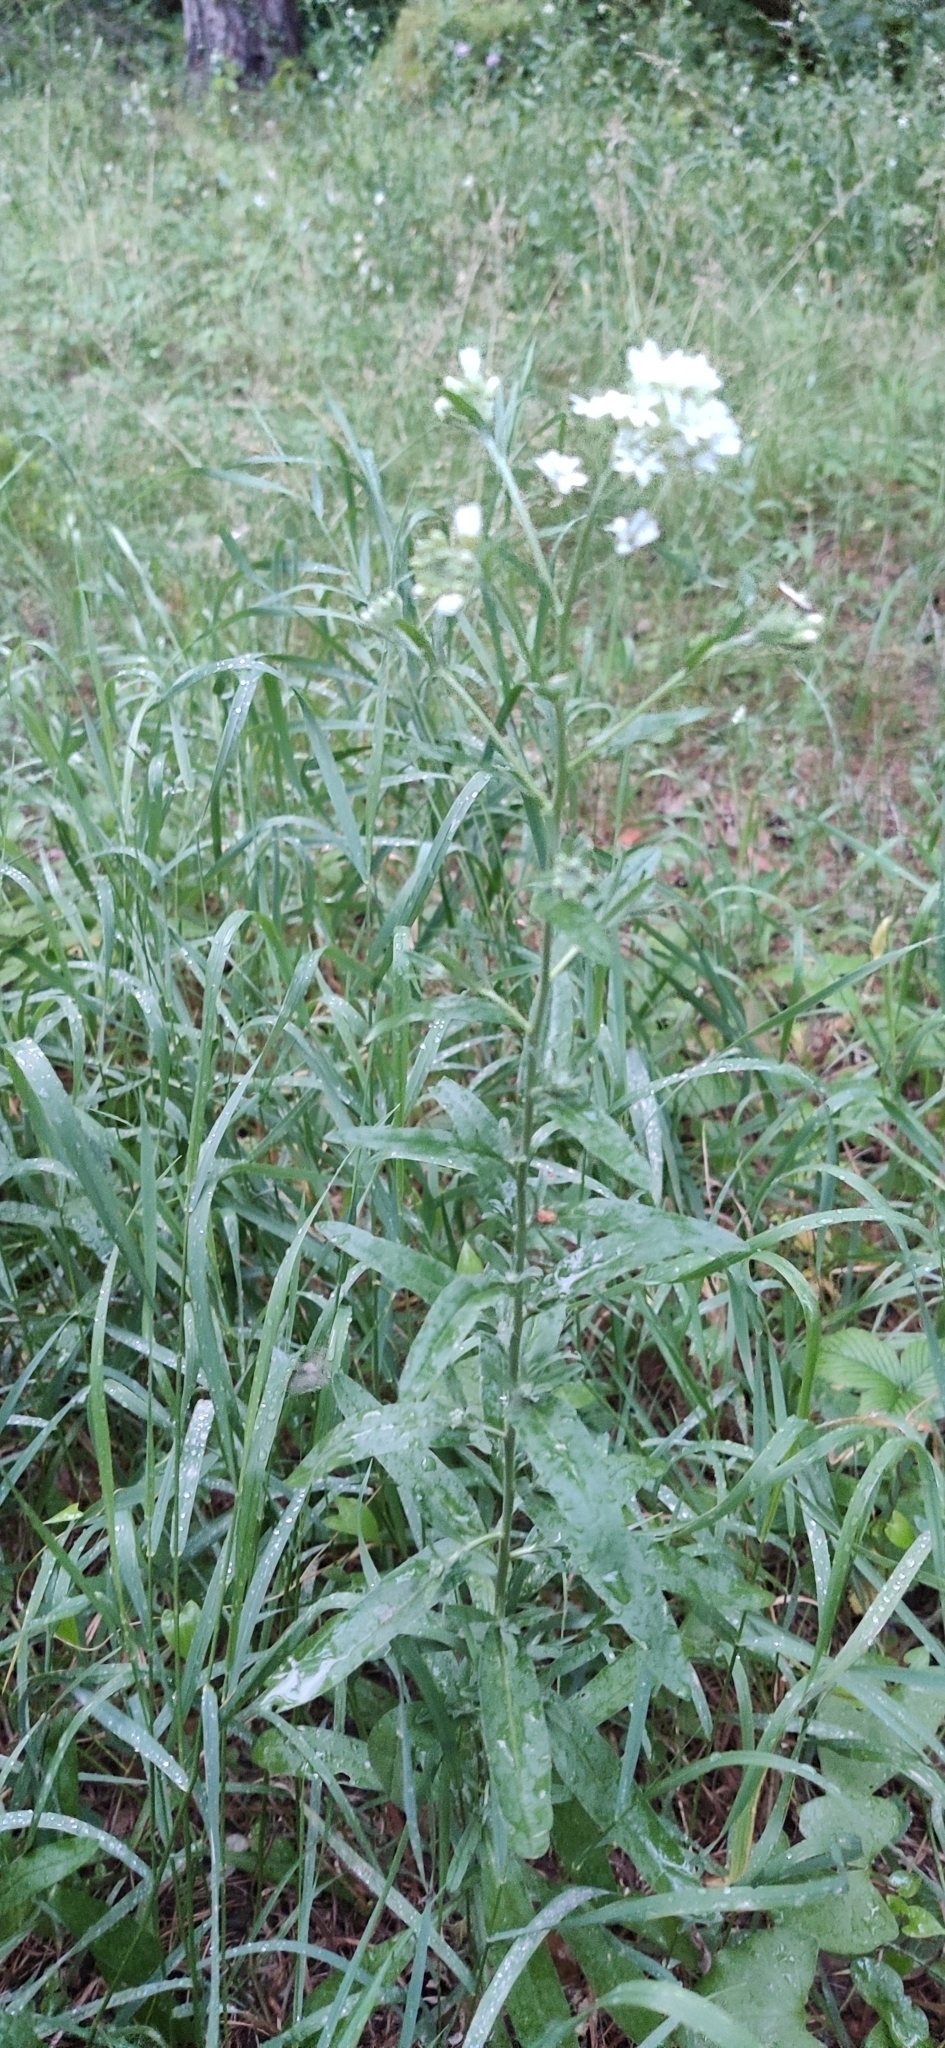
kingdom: Plantae
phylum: Tracheophyta
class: Magnoliopsida
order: Brassicales
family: Brassicaceae
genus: Berteroa
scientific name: Berteroa incana
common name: Hoary alison
